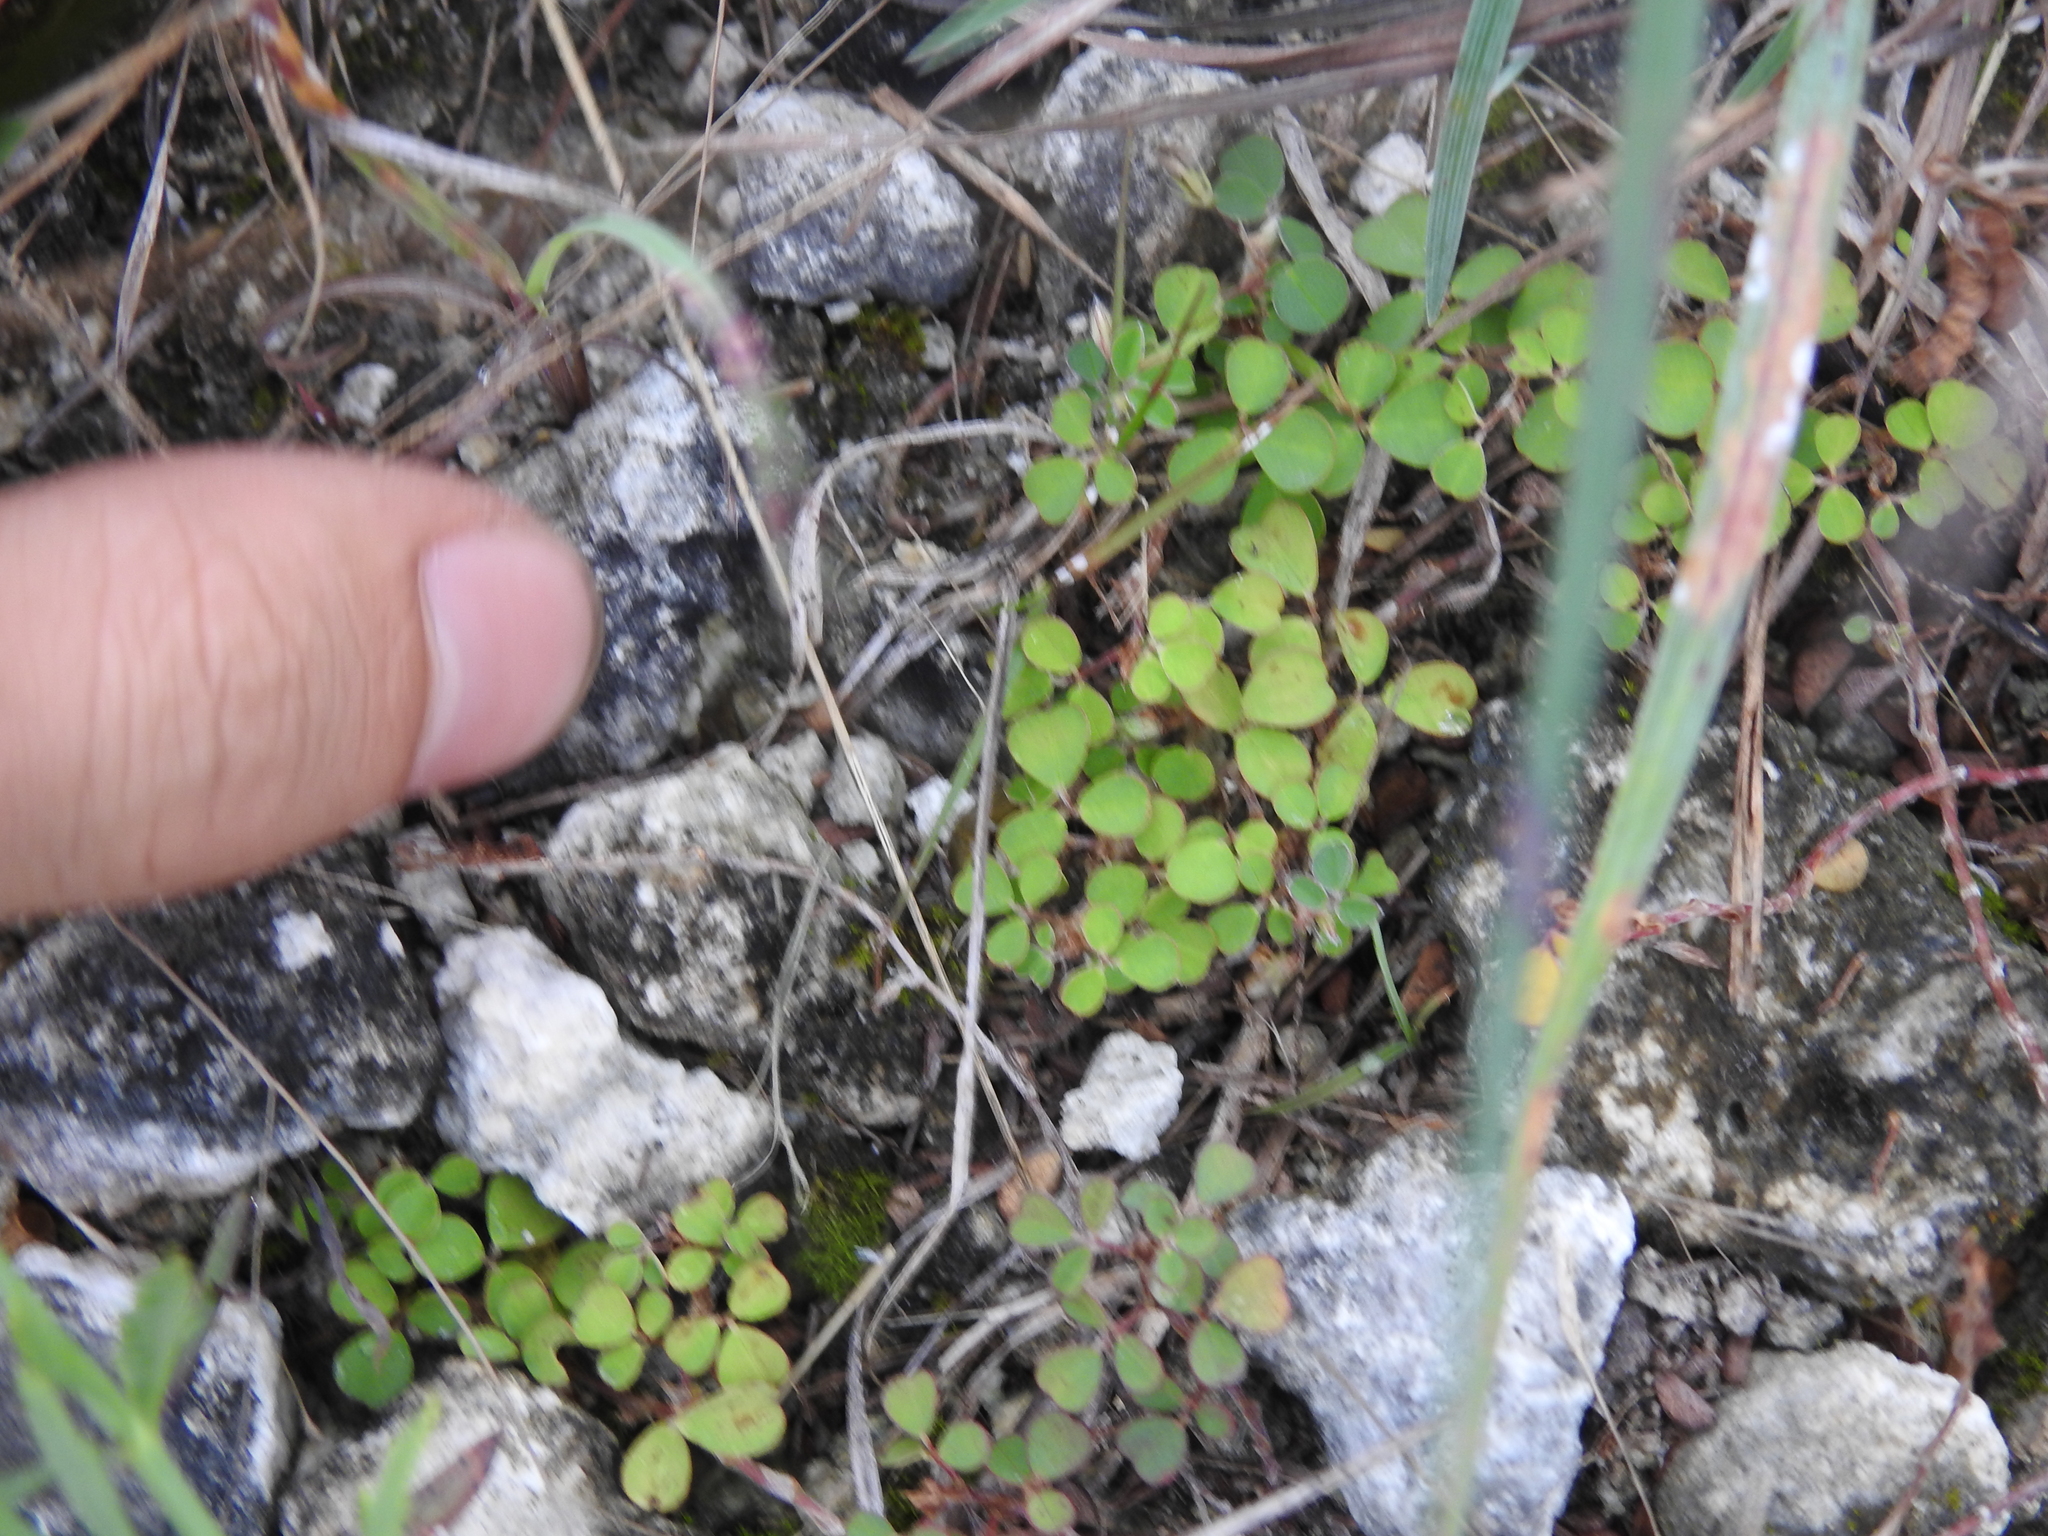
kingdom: Plantae
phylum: Tracheophyta
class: Magnoliopsida
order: Fabales
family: Fabaceae
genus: Grona
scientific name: Grona triflora
